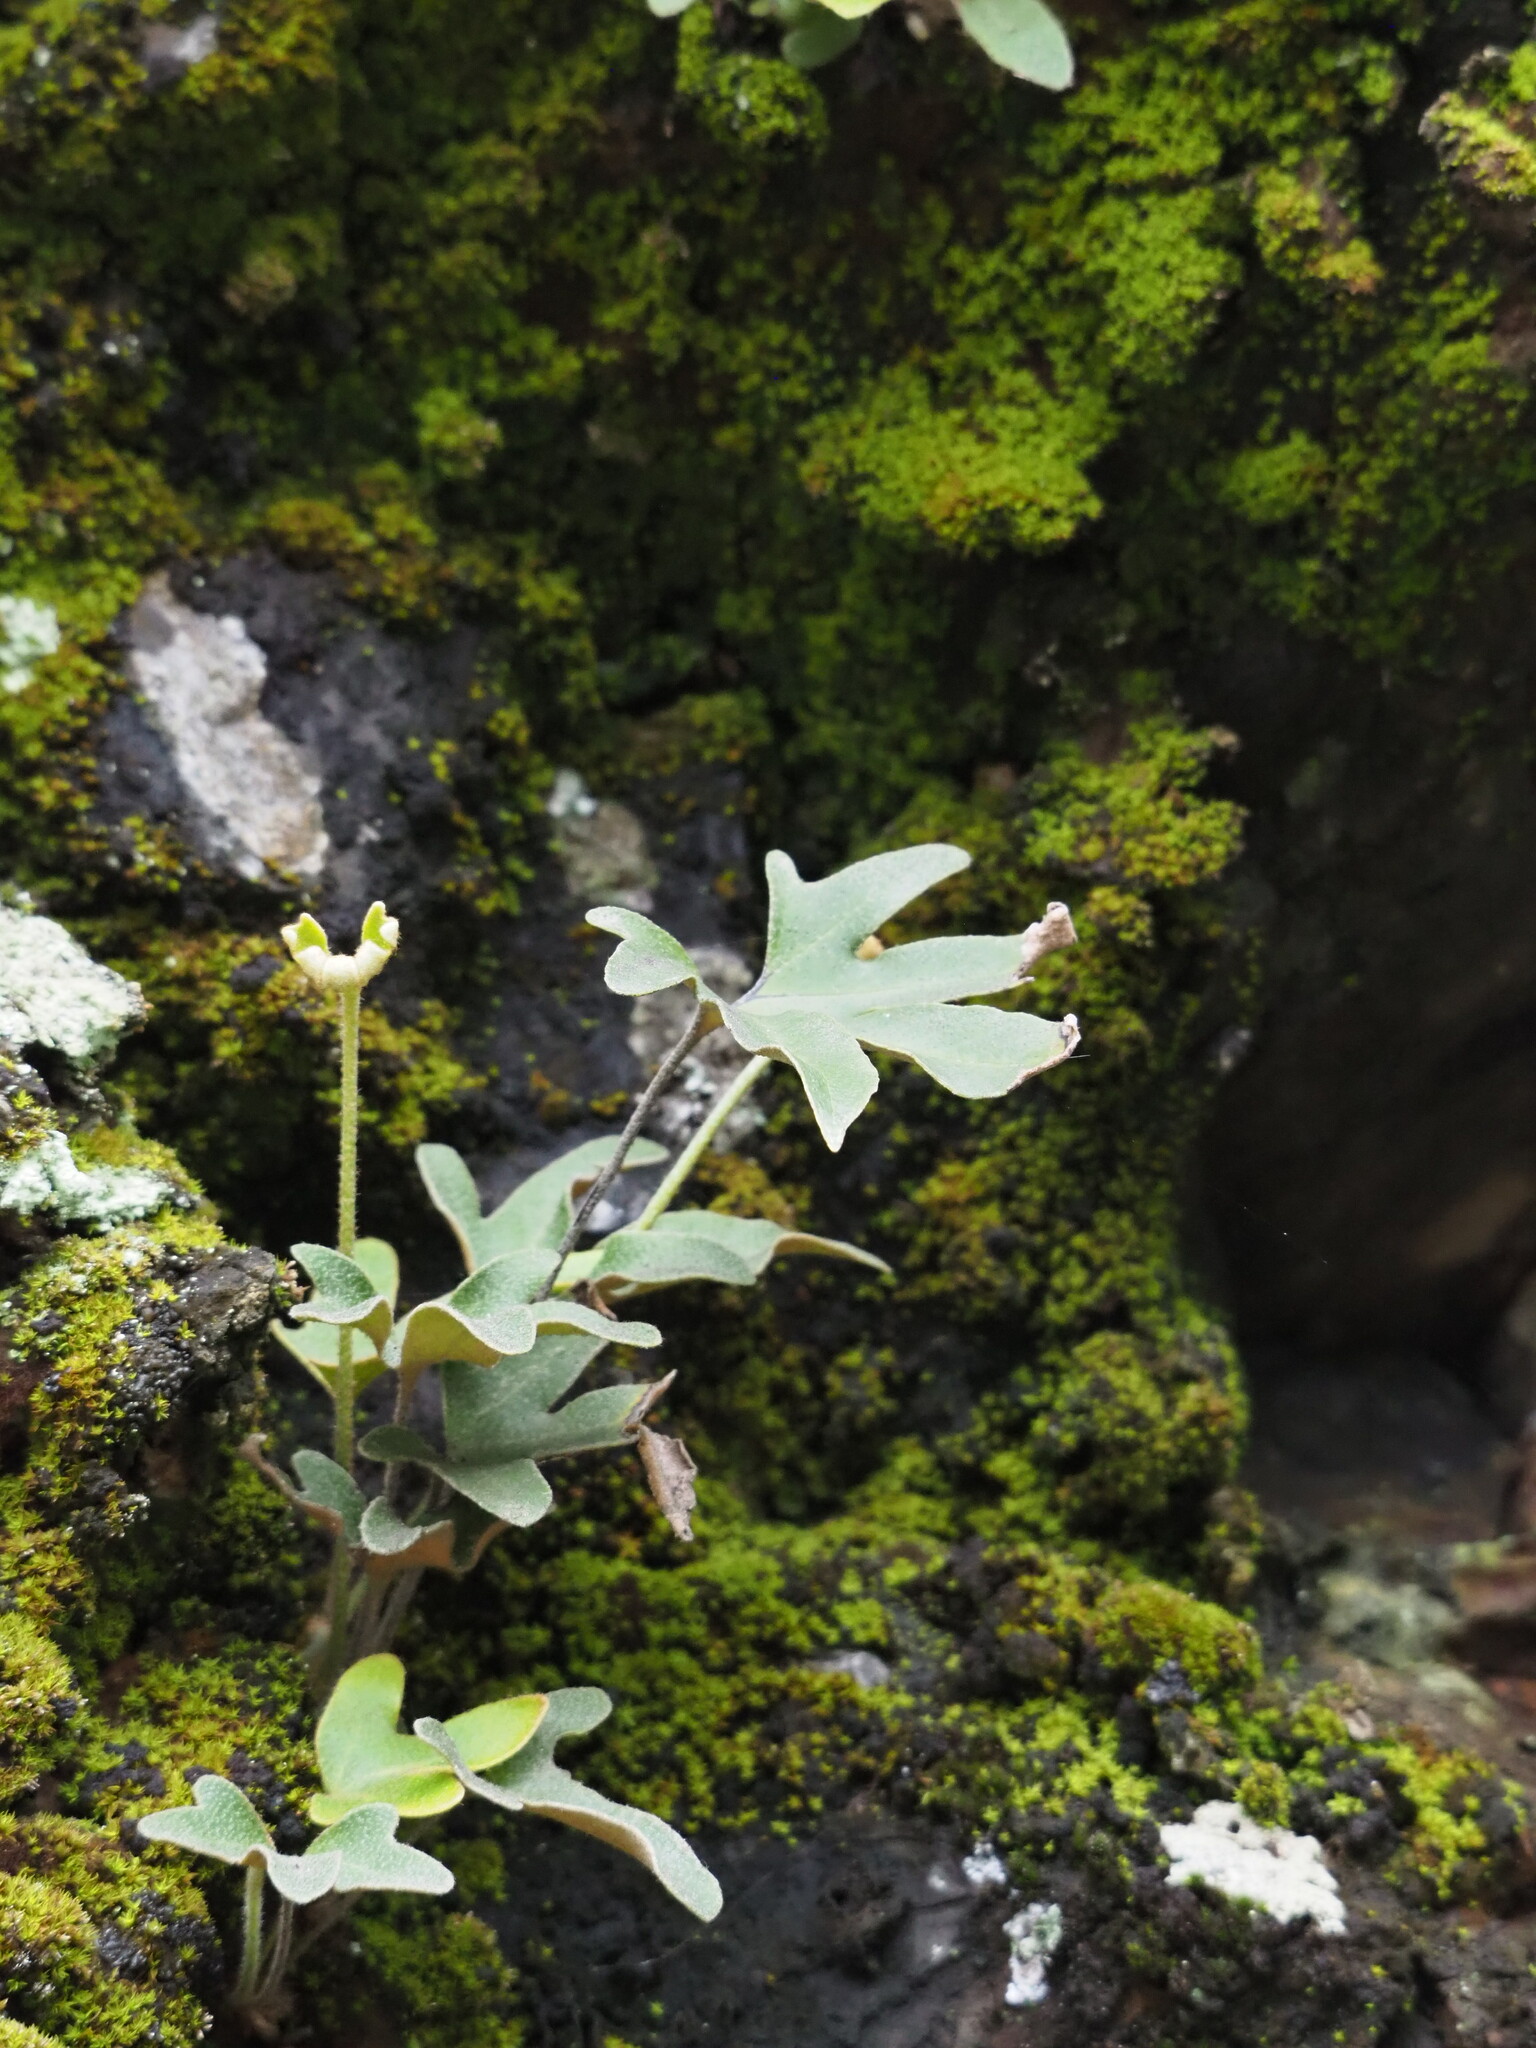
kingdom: Plantae
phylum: Tracheophyta
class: Polypodiopsida
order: Polypodiales
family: Polypodiaceae
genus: Pyrrosia
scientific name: Pyrrosia polydactyla
